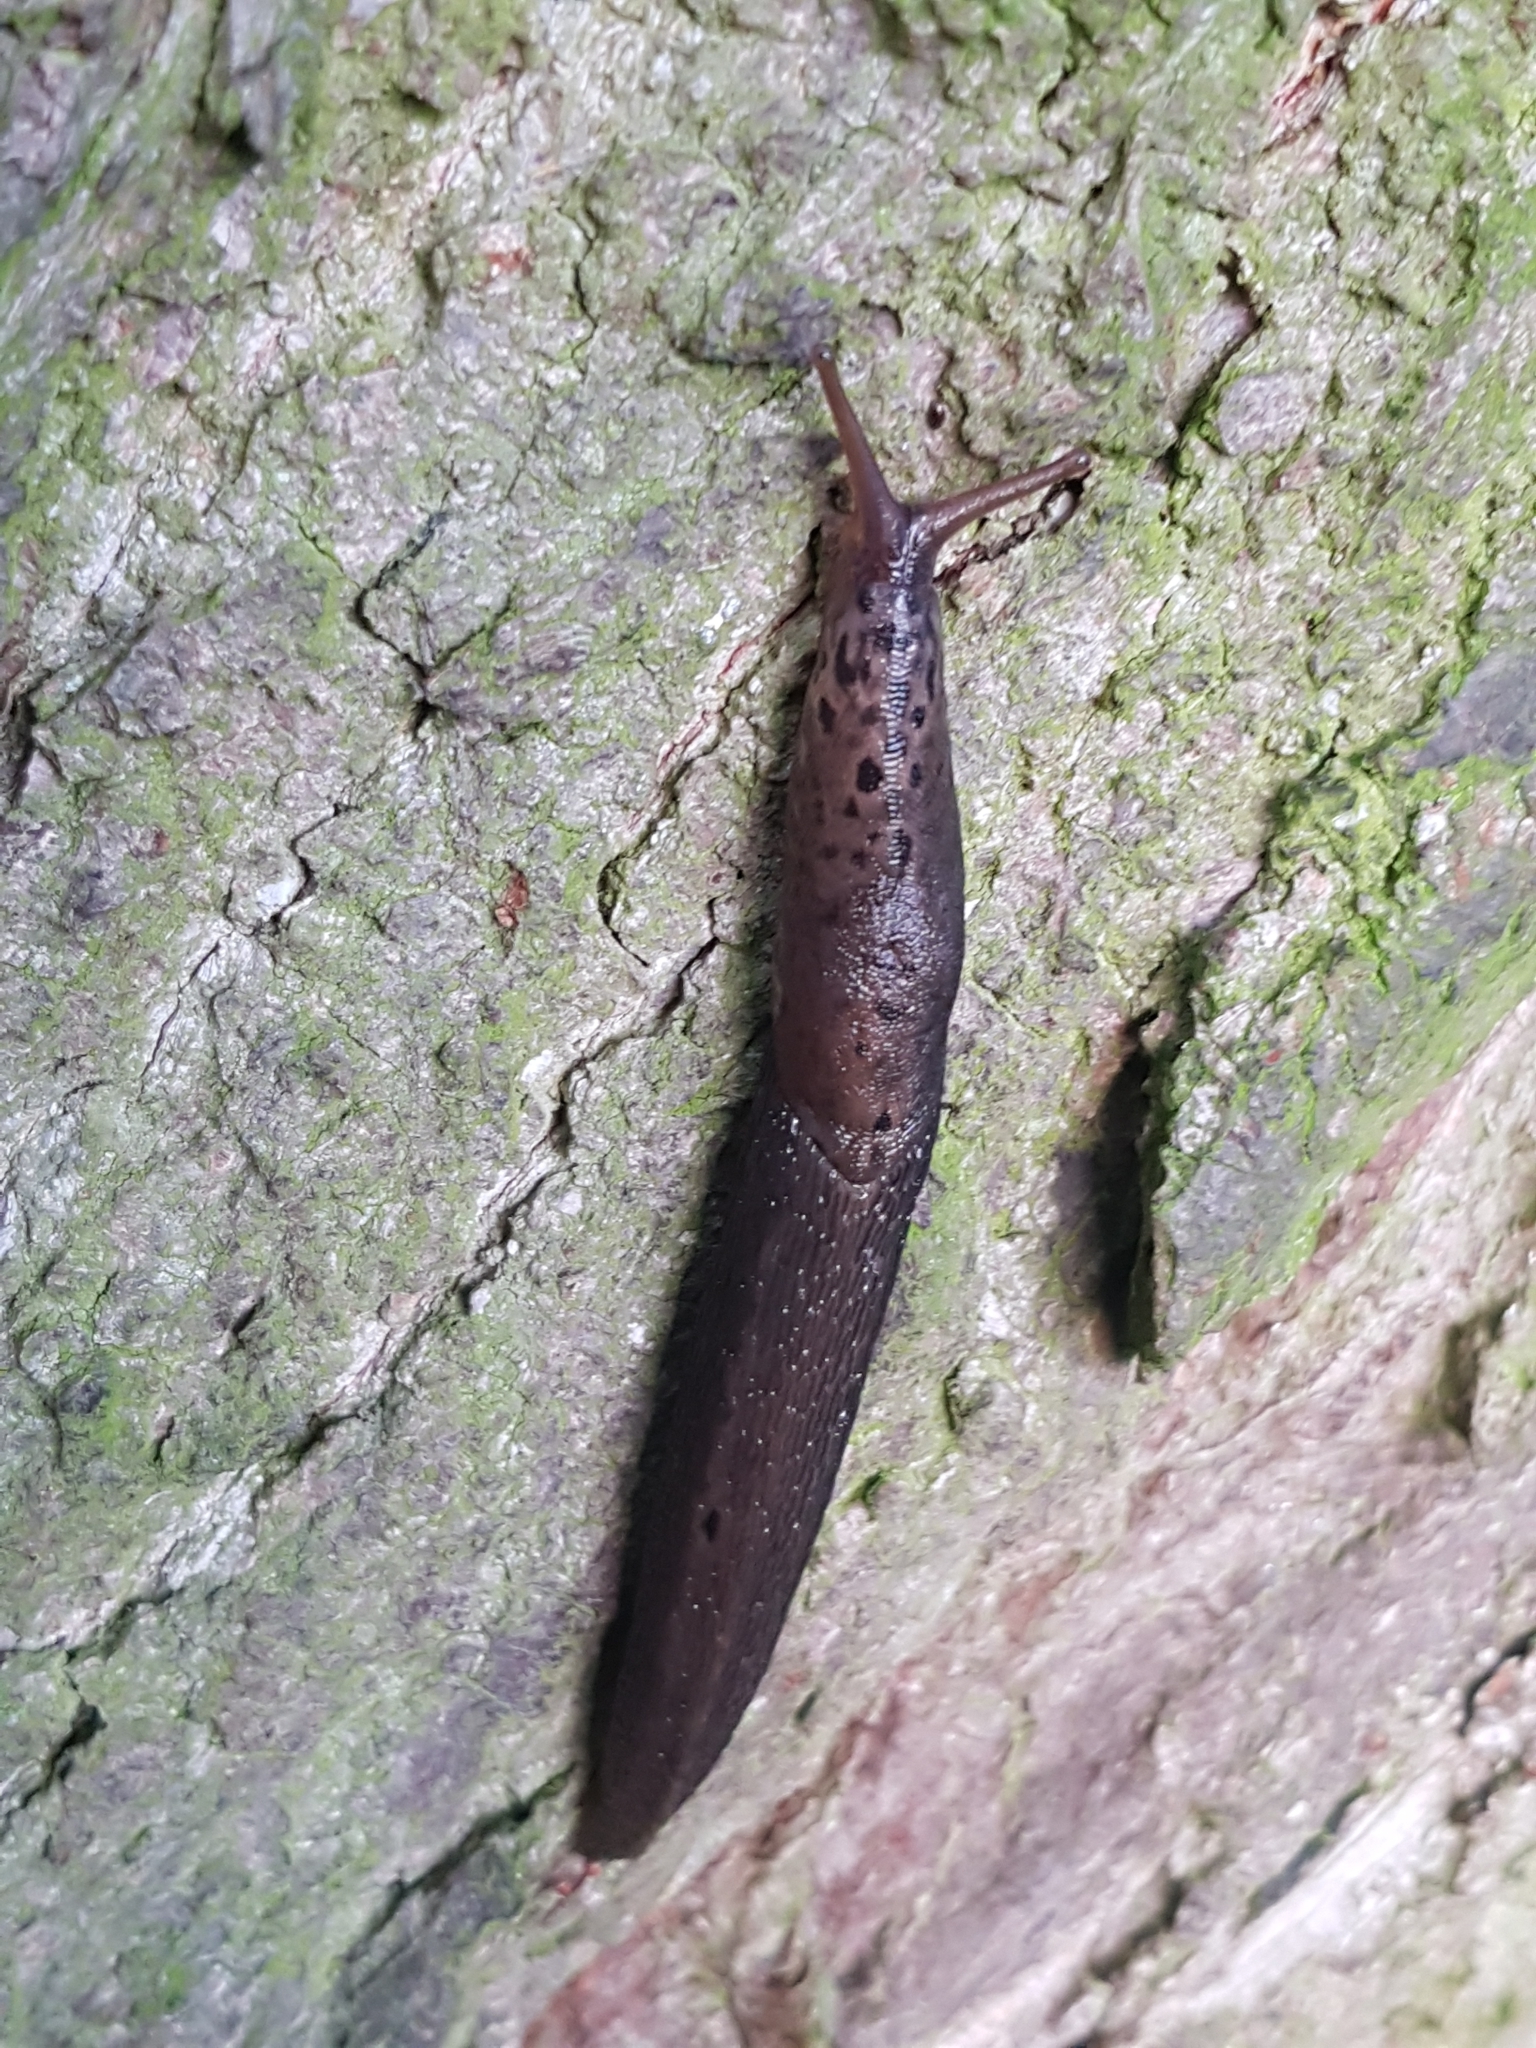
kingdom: Animalia
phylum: Mollusca
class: Gastropoda
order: Stylommatophora
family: Limacidae
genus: Limax
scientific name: Limax maximus
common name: Great grey slug
